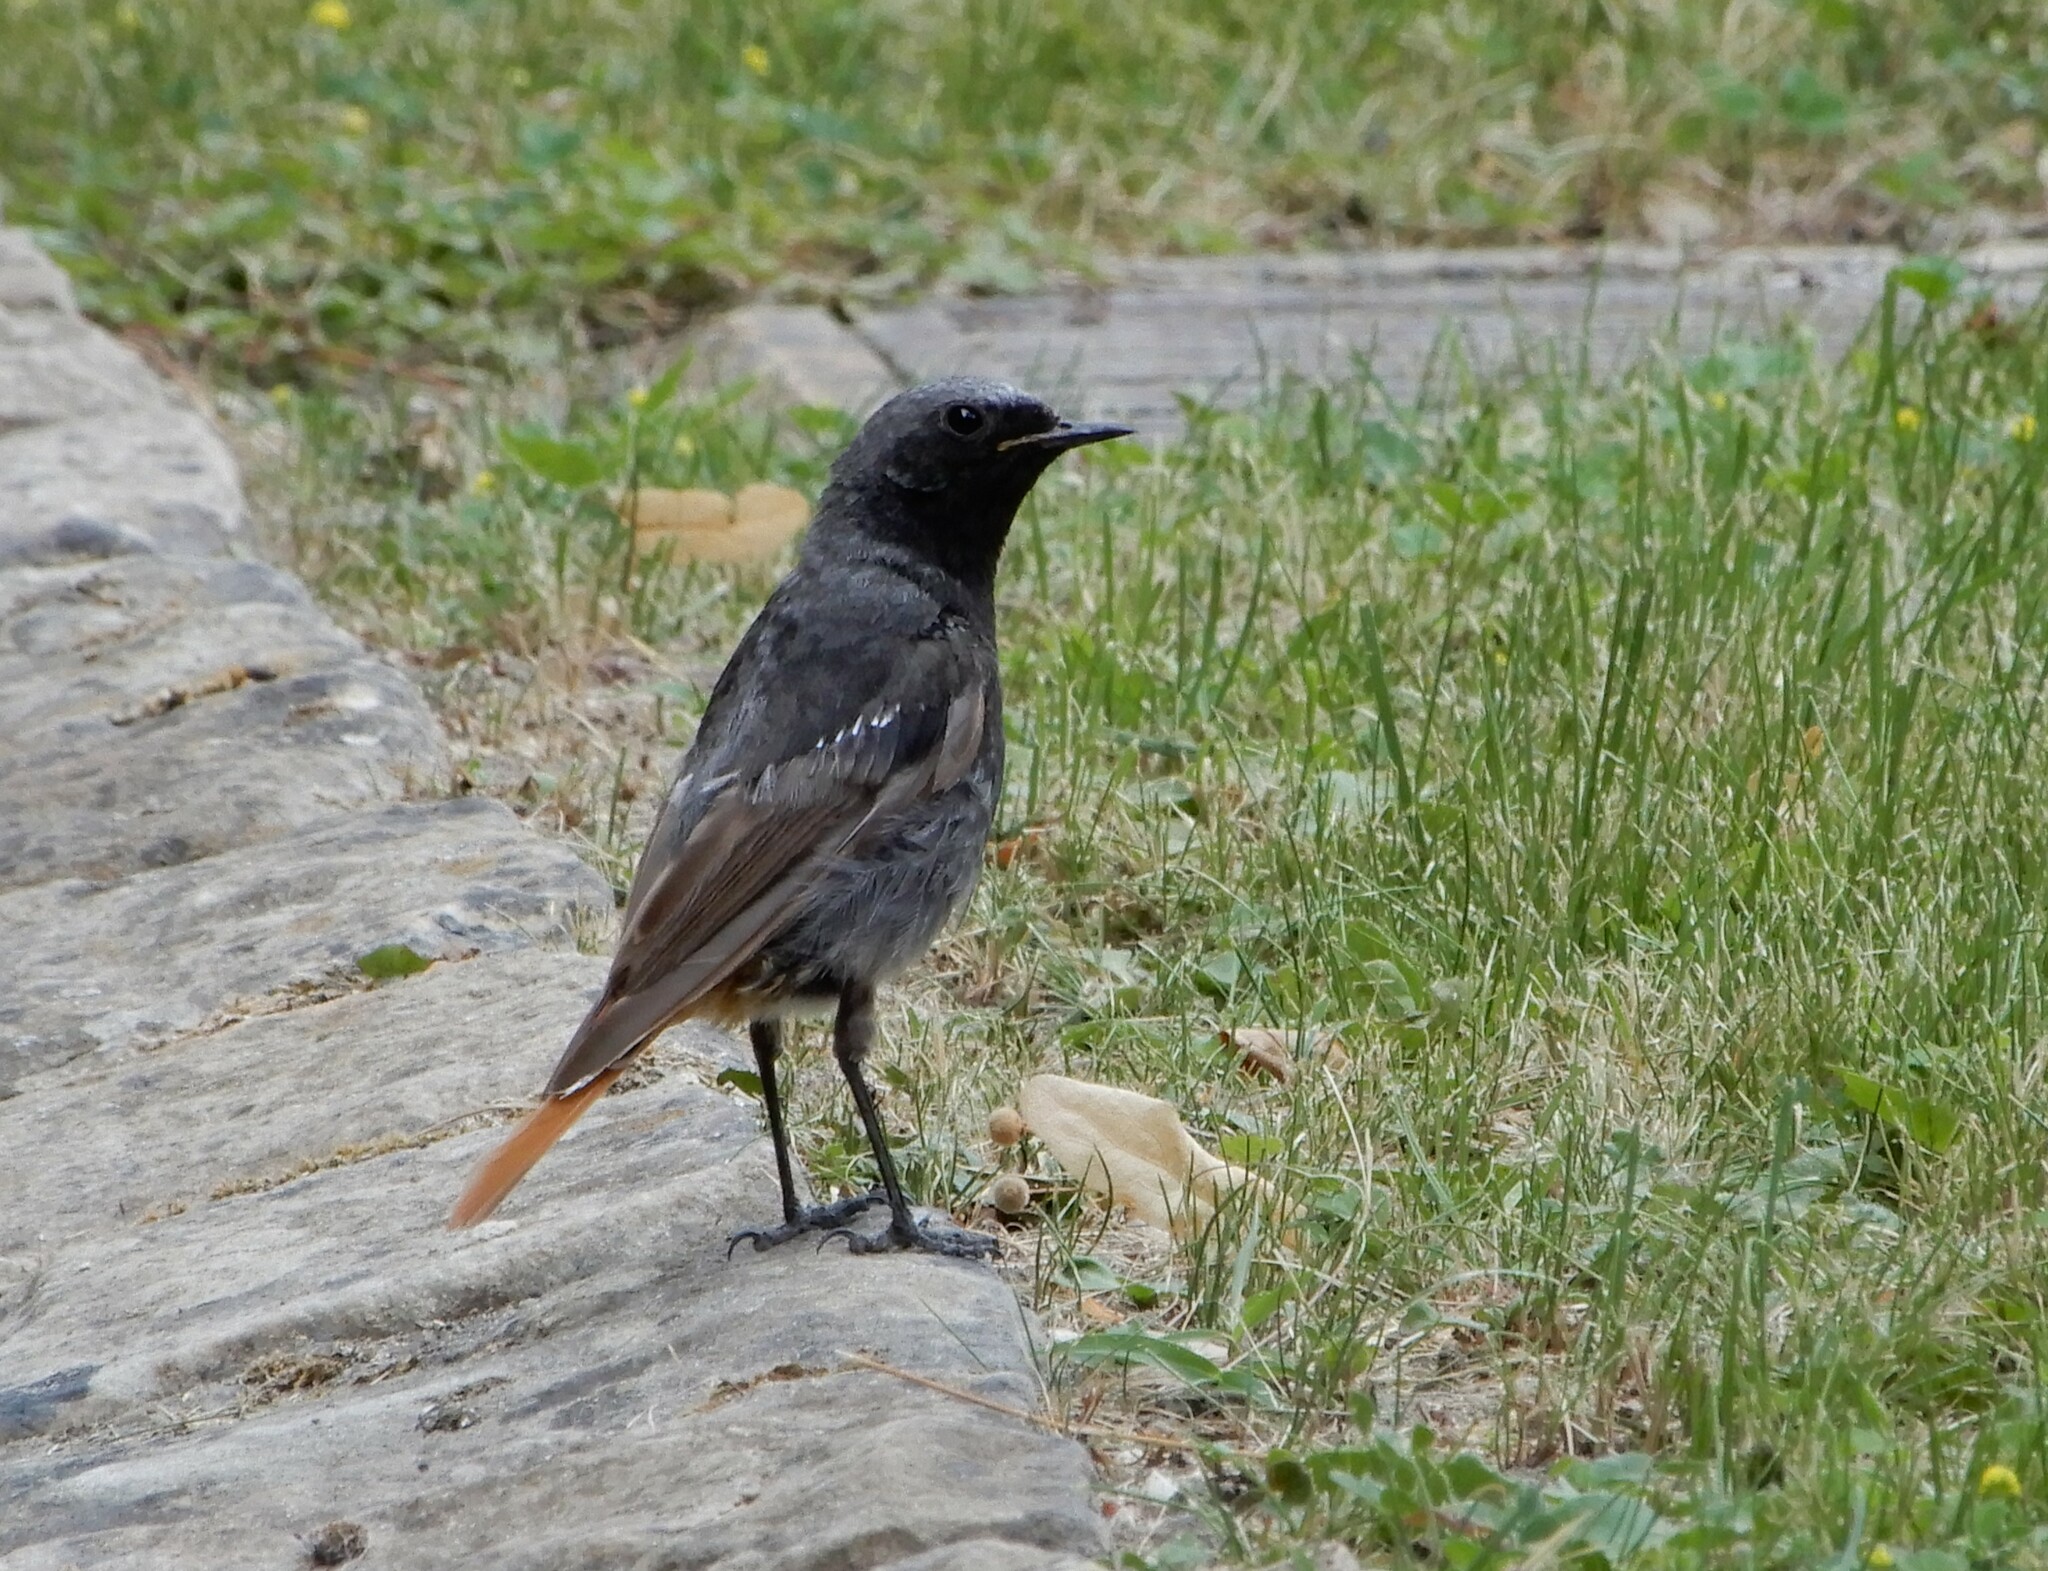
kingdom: Animalia
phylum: Chordata
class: Aves
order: Passeriformes
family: Muscicapidae
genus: Phoenicurus
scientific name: Phoenicurus ochruros
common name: Black redstart
